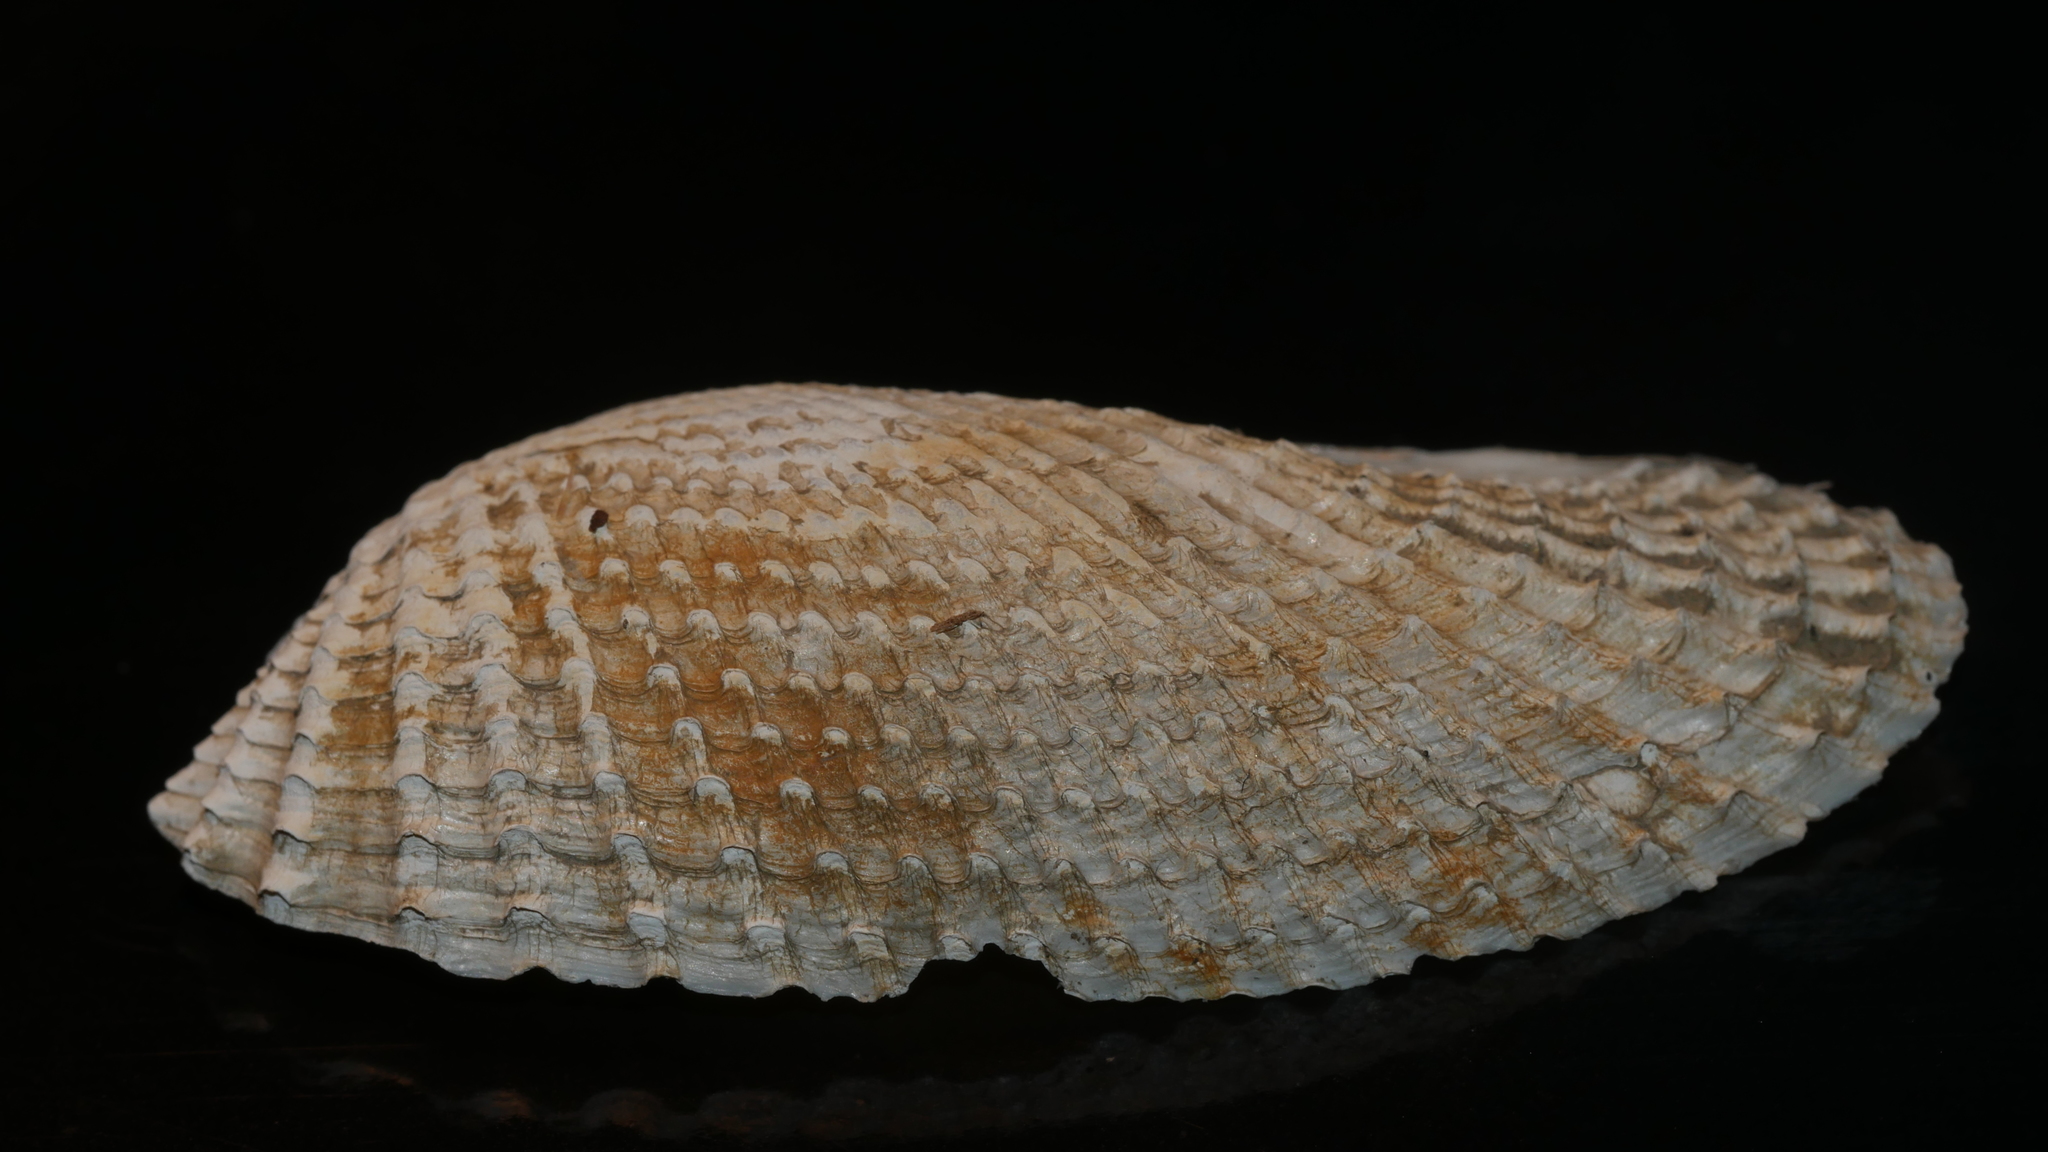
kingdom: Animalia
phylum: Mollusca
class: Bivalvia
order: Myida
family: Pholadidae
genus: Cyrtopleura
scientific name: Cyrtopleura costata
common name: Angel wing
